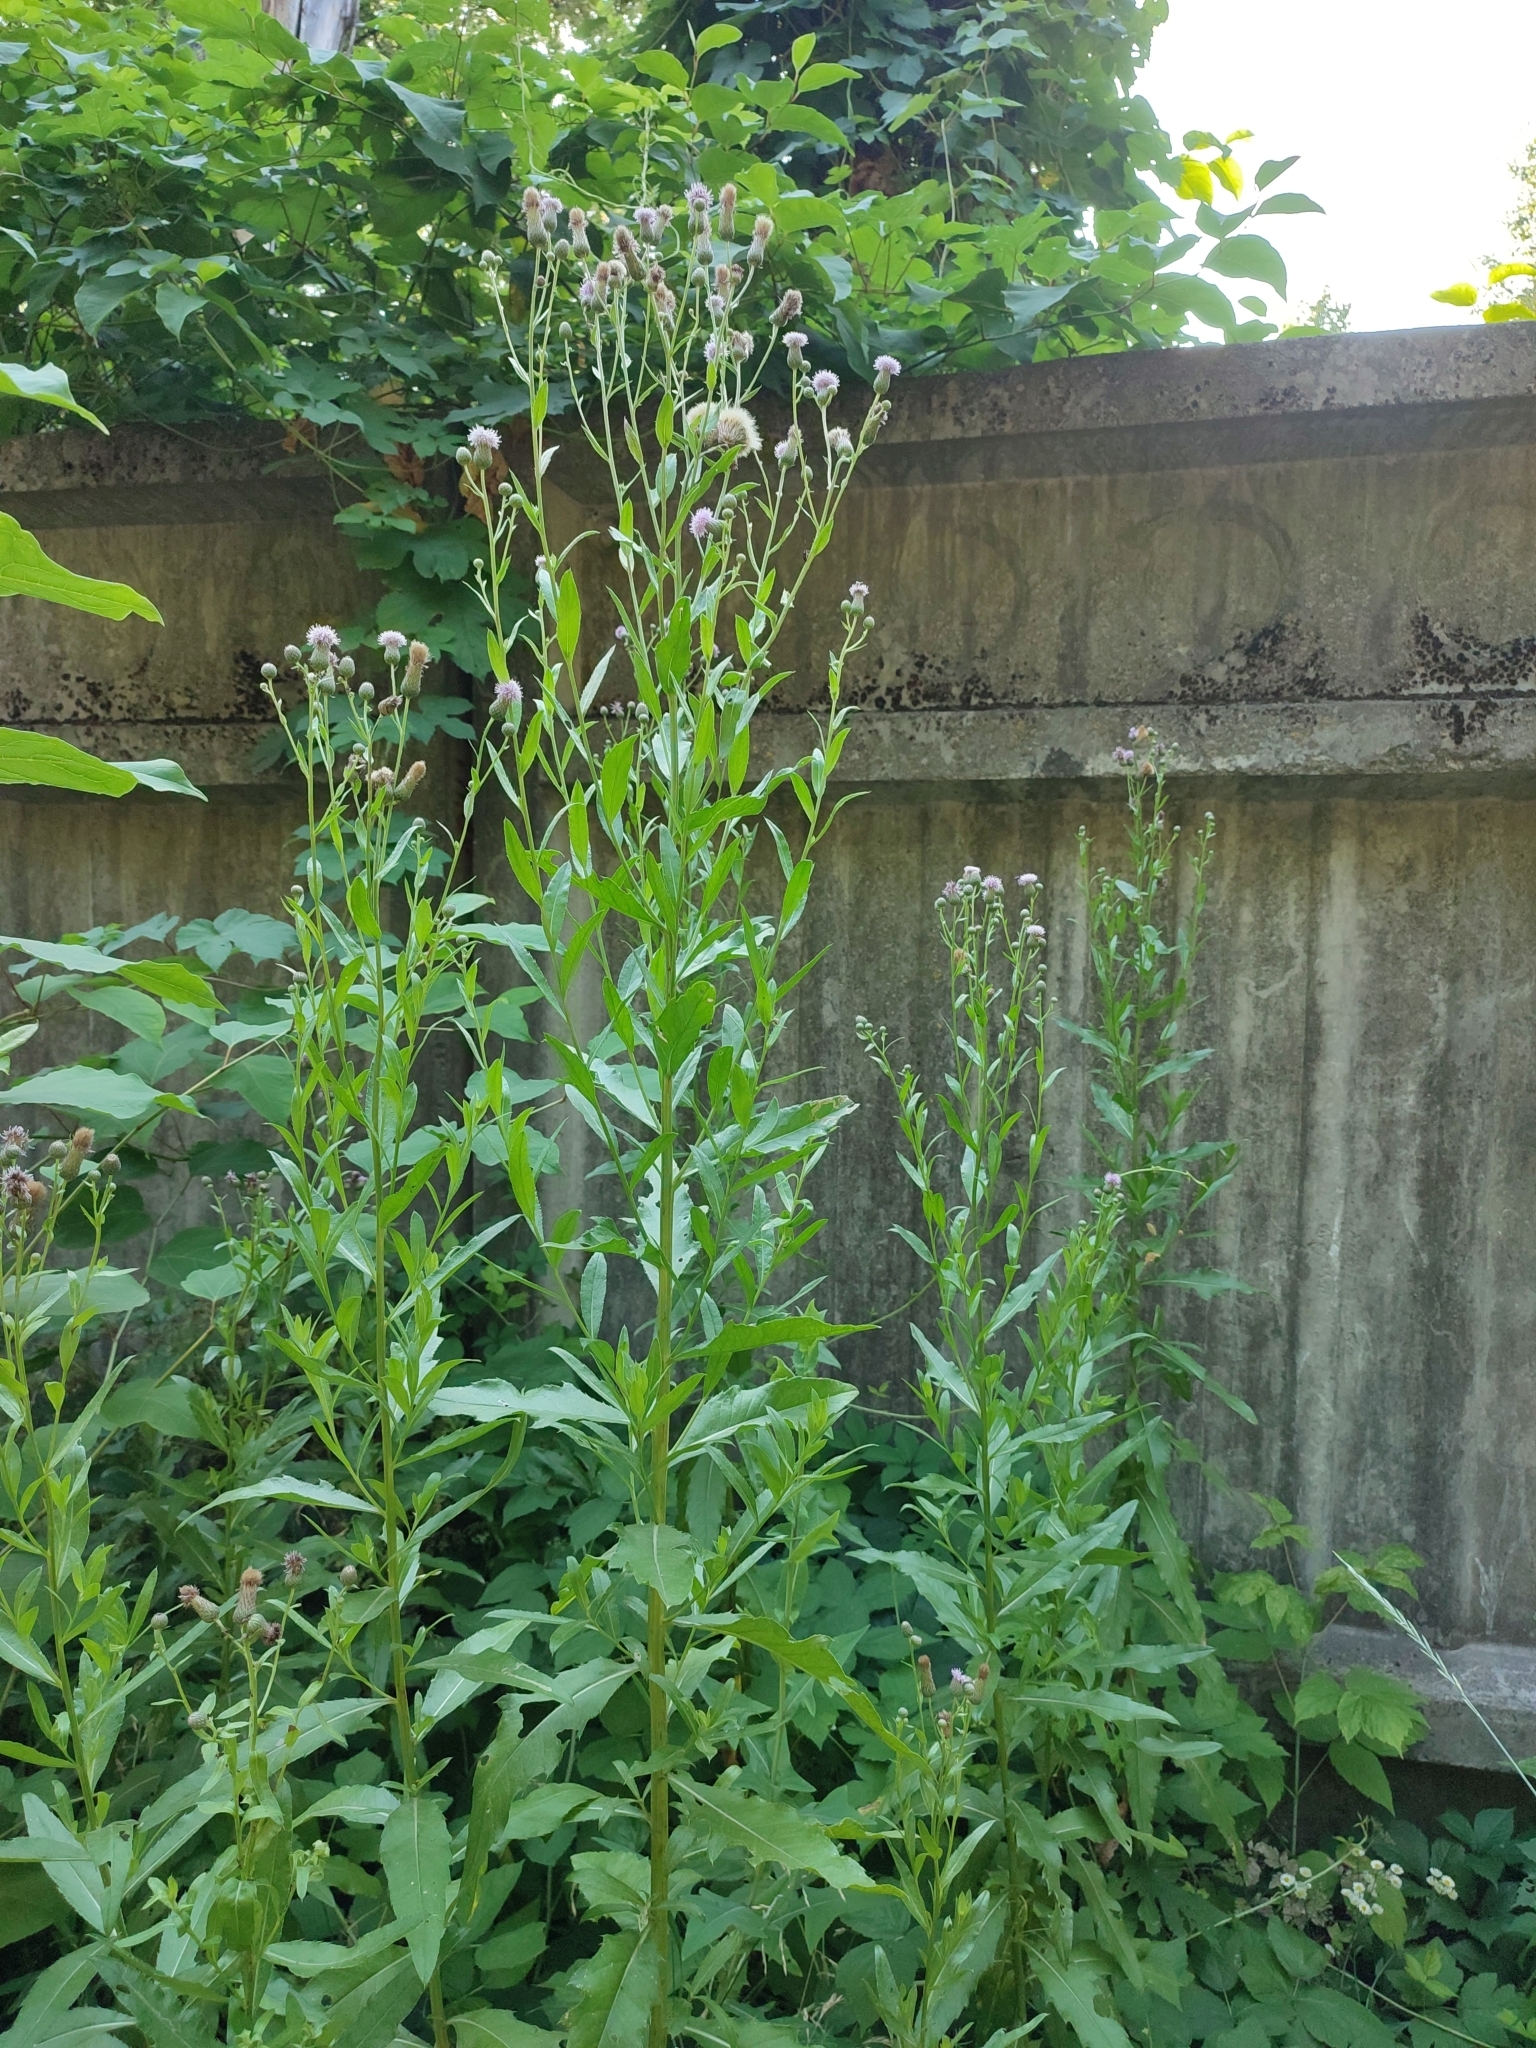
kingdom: Plantae
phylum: Tracheophyta
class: Magnoliopsida
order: Asterales
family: Asteraceae
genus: Cirsium
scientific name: Cirsium arvense
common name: Creeping thistle
